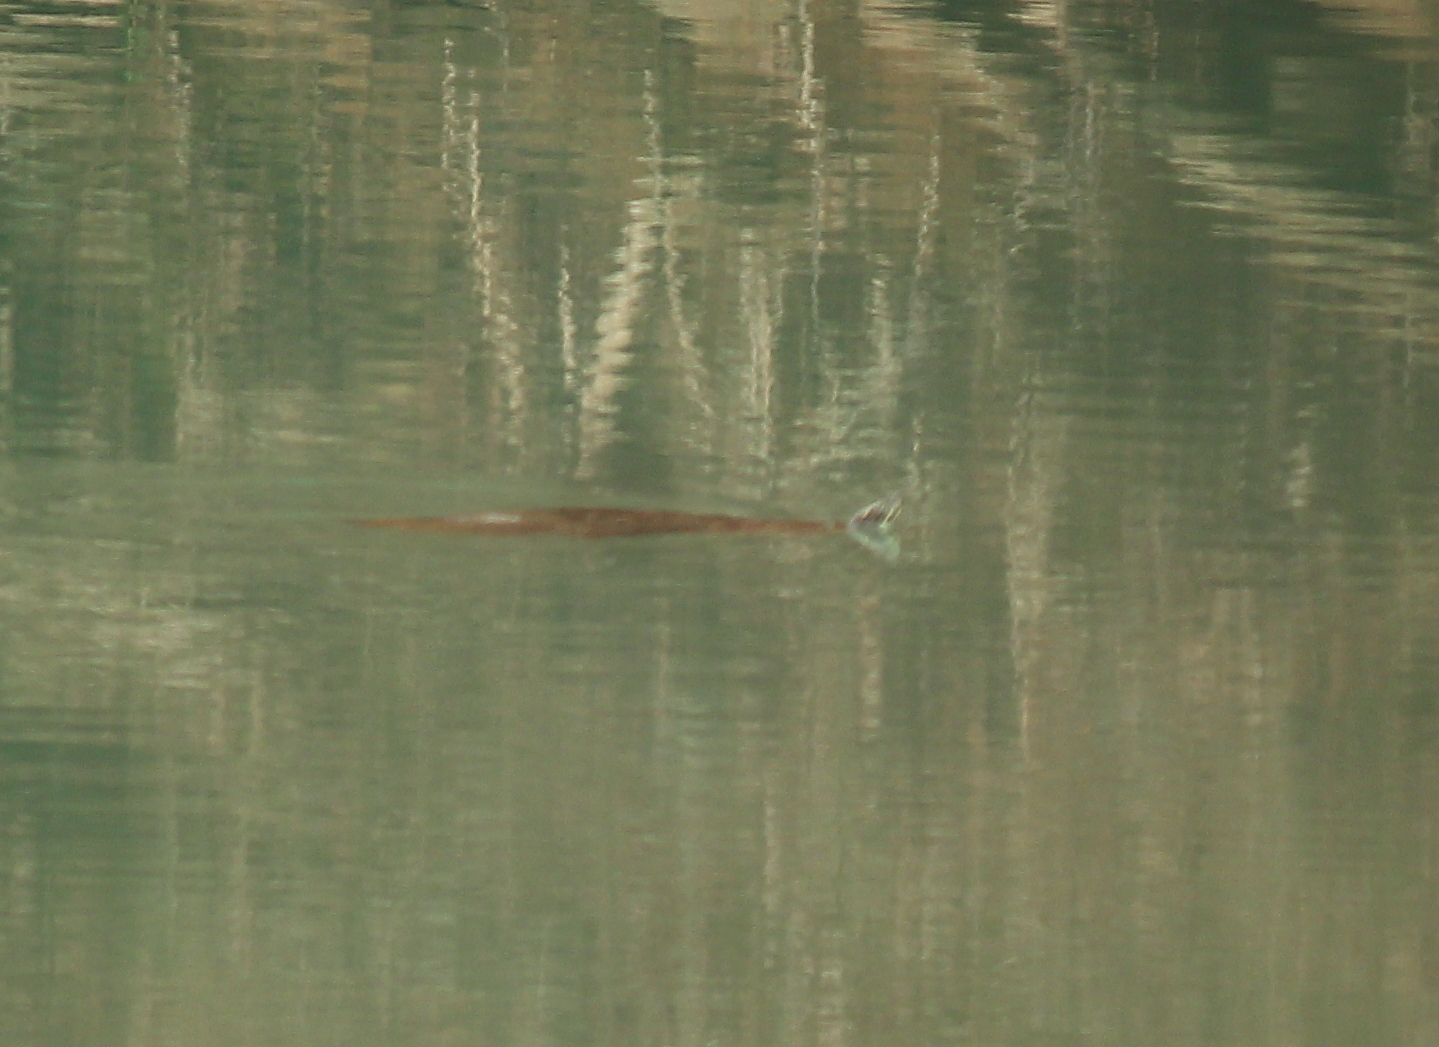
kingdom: Animalia
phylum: Chordata
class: Squamata
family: Viperidae
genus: Agkistrodon
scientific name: Agkistrodon piscivorus
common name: Cottonmouth
